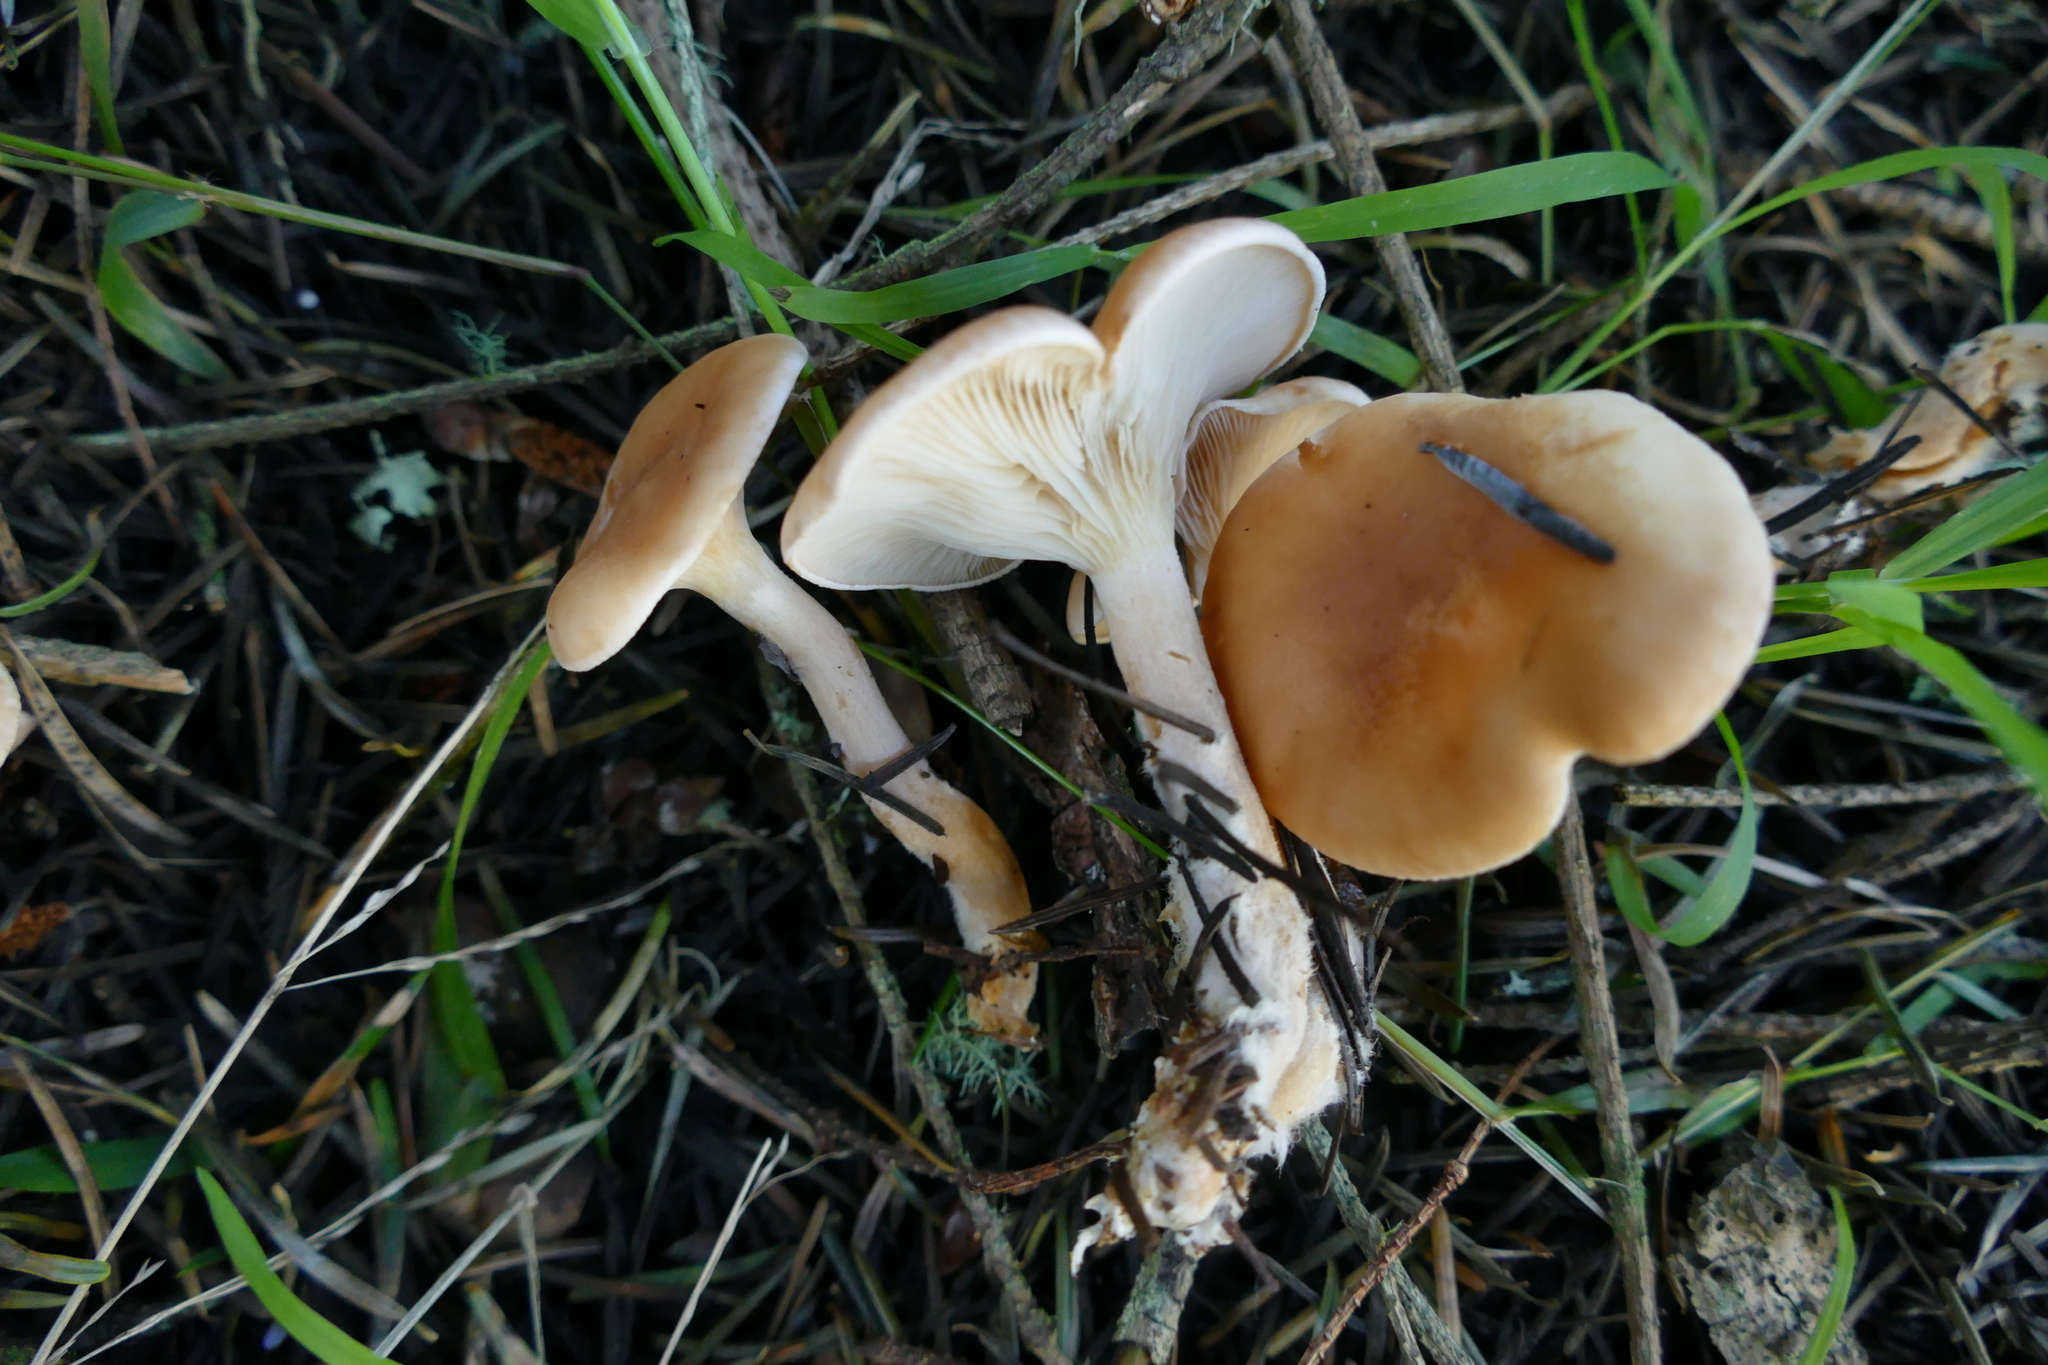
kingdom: Fungi
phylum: Basidiomycota
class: Agaricomycetes
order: Agaricales
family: Tricholomataceae
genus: Paralepista
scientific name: Paralepista flaccida
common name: Tawny funnel cap
